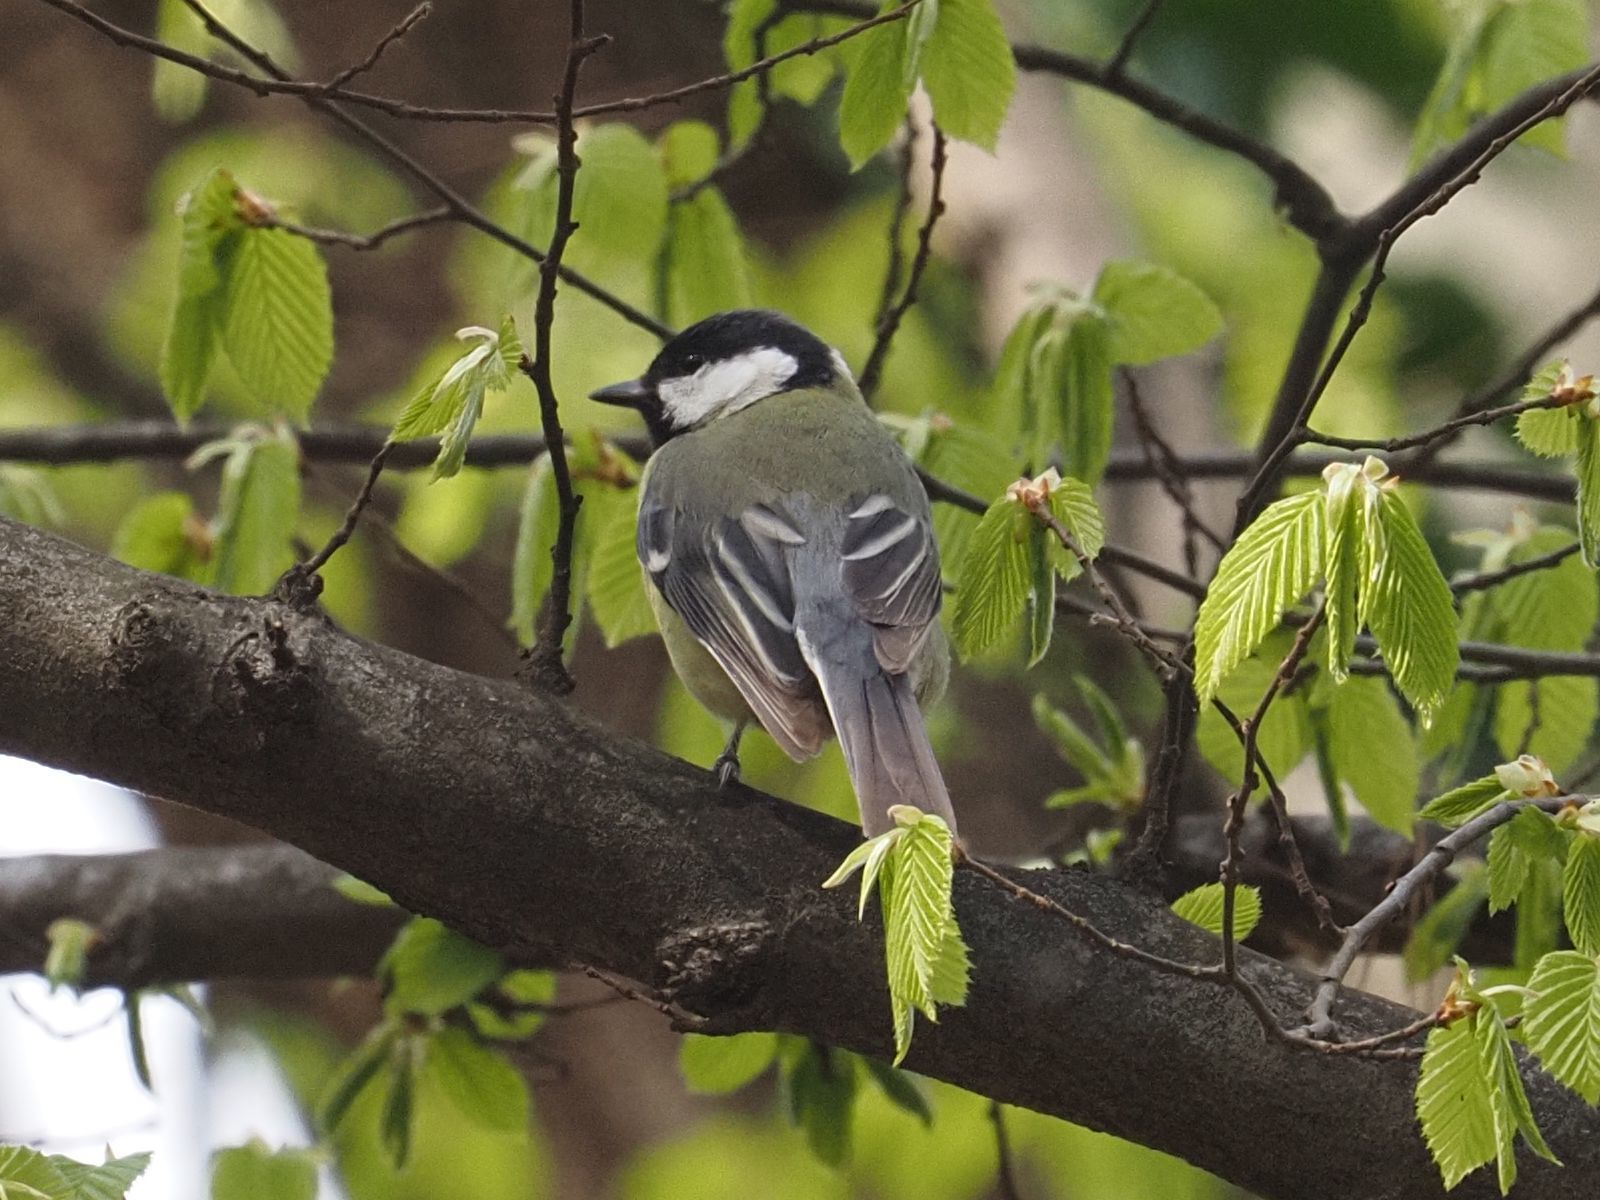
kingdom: Animalia
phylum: Chordata
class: Aves
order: Passeriformes
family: Paridae
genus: Parus
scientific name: Parus major
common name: Great tit
